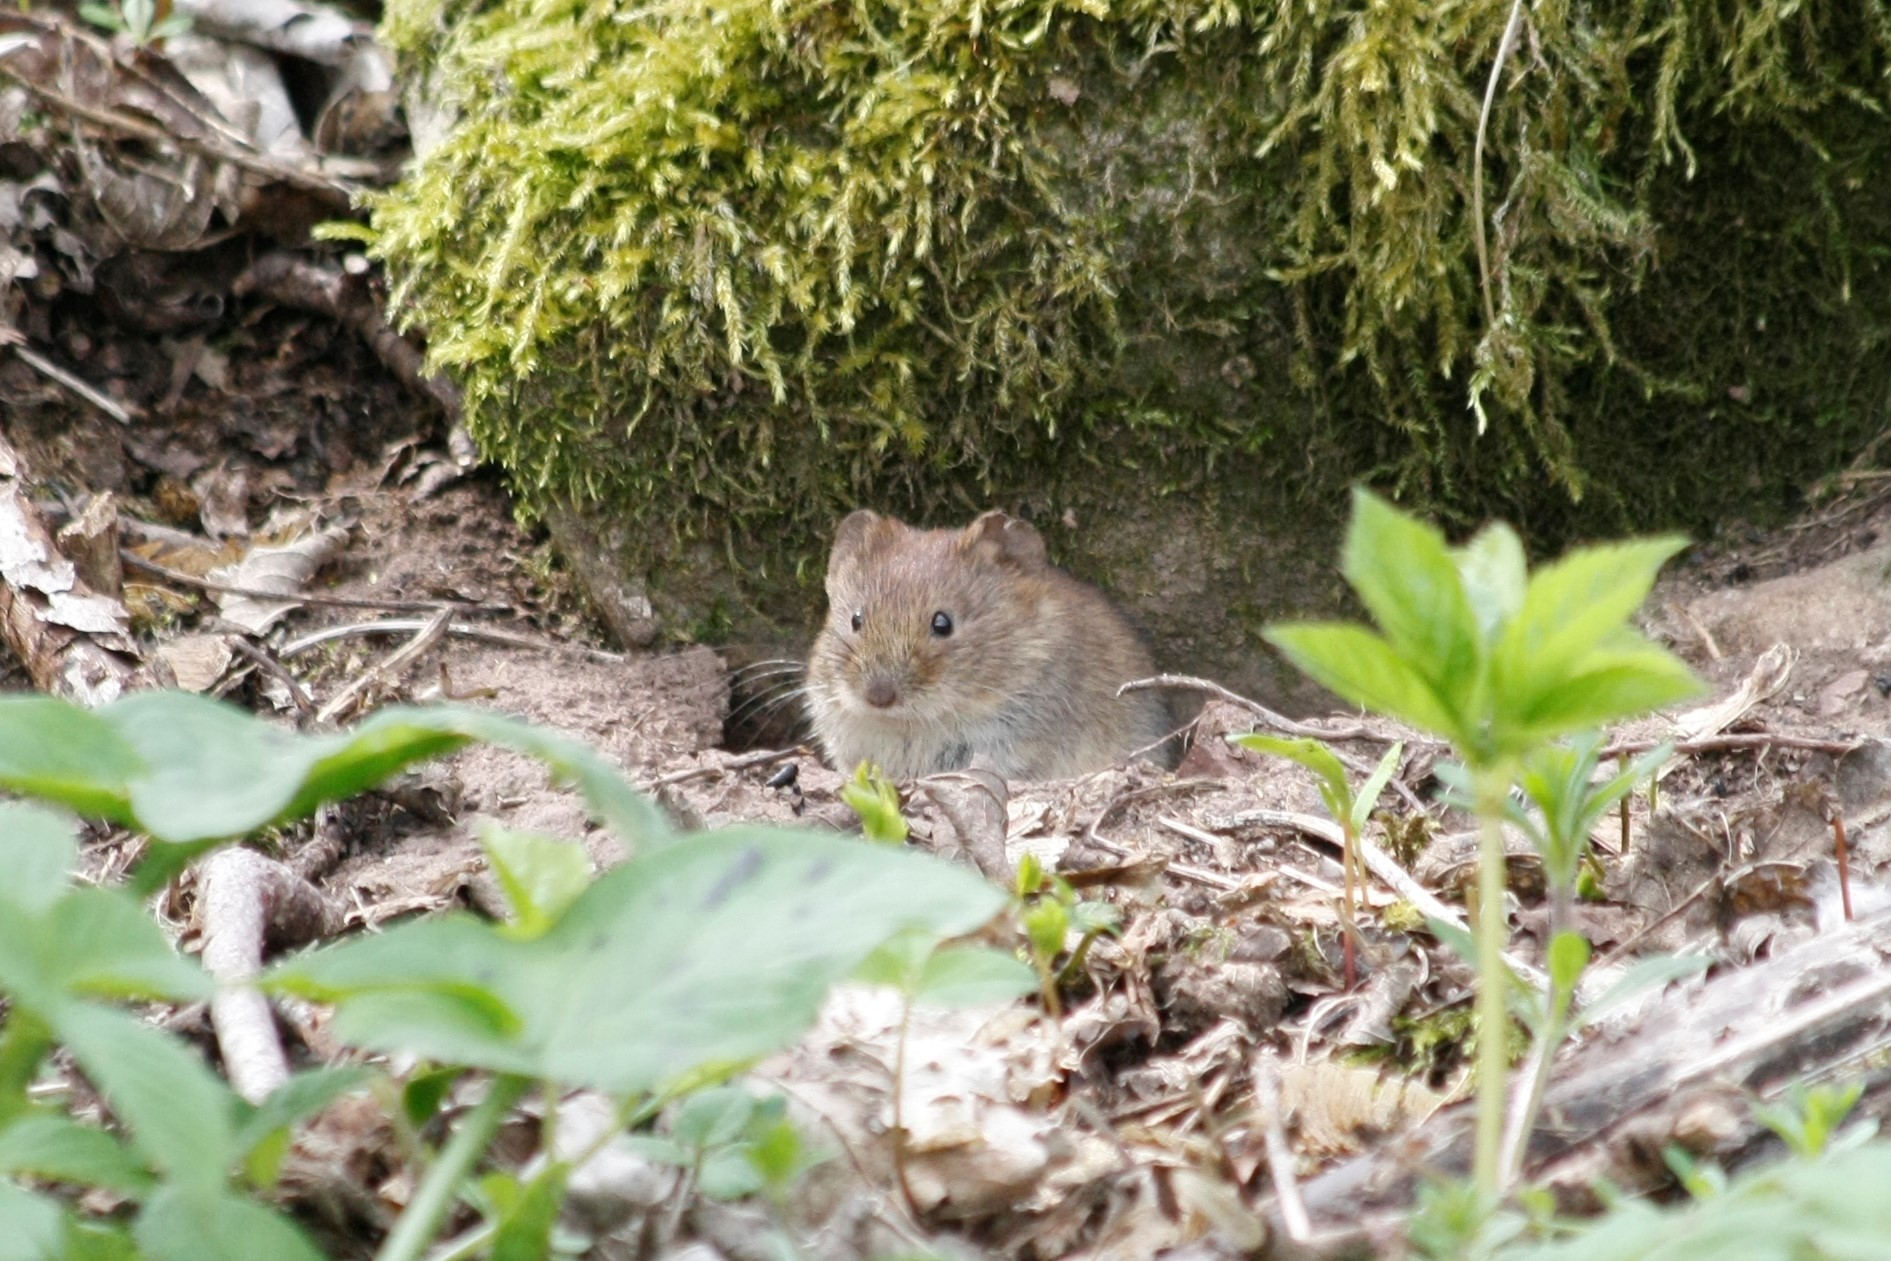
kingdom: Animalia
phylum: Chordata
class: Mammalia
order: Rodentia
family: Cricetidae
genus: Myodes
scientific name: Myodes glareolus
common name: Bank vole
